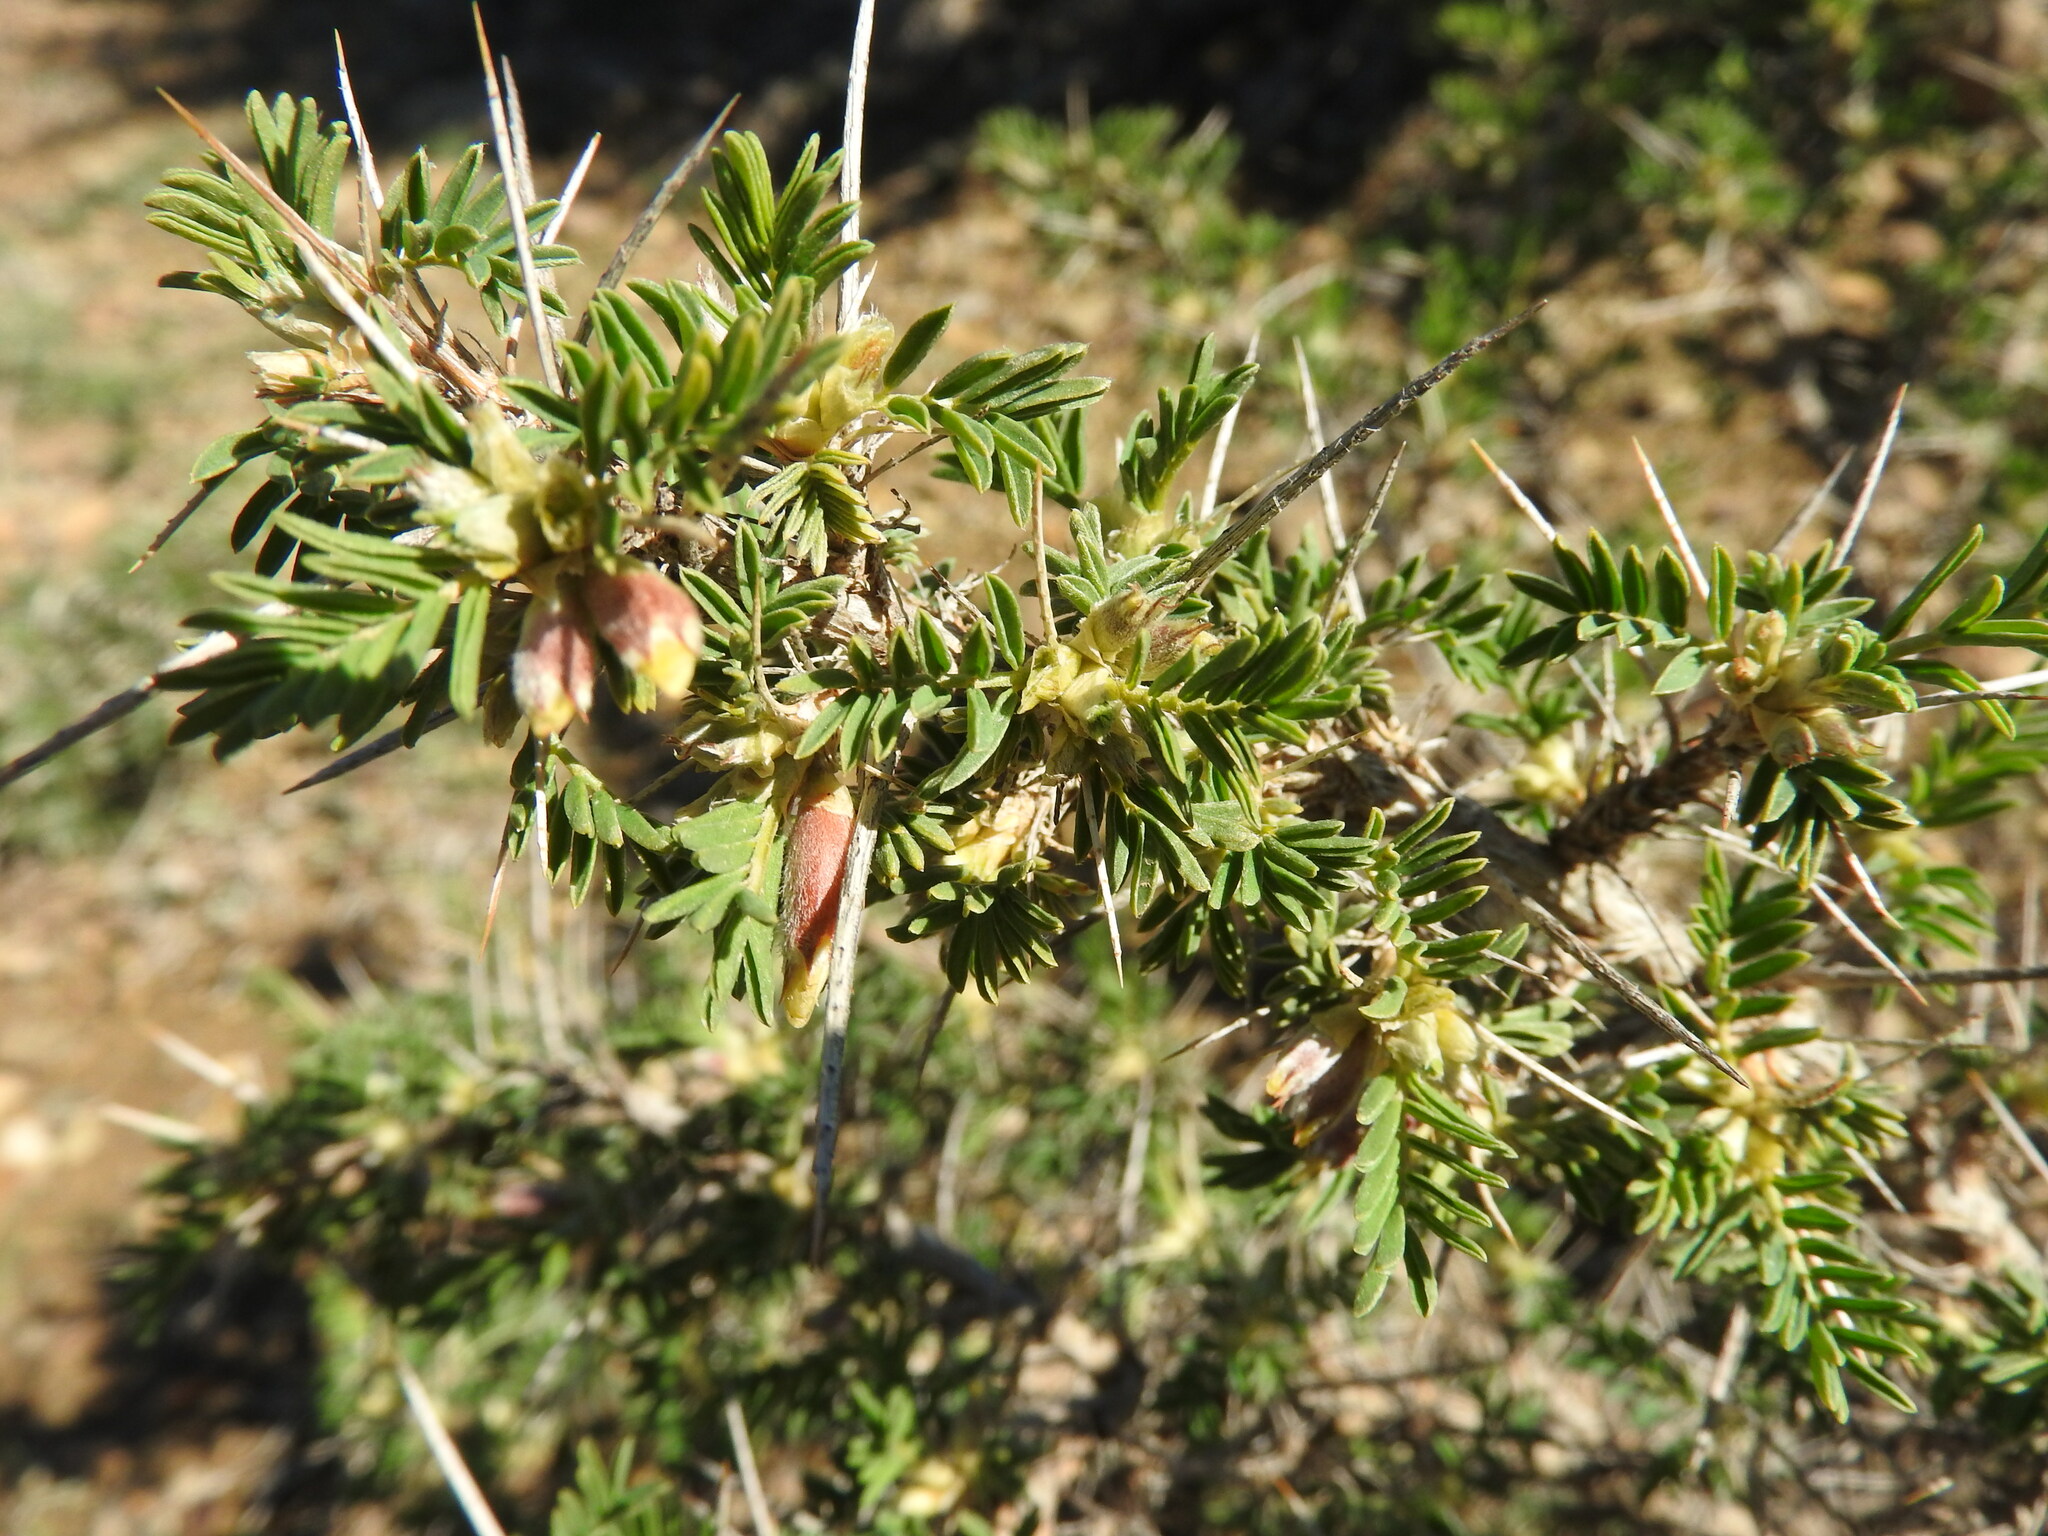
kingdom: Plantae
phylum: Tracheophyta
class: Magnoliopsida
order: Fabales
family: Fabaceae
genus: Astragalus
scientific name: Astragalus armatus
